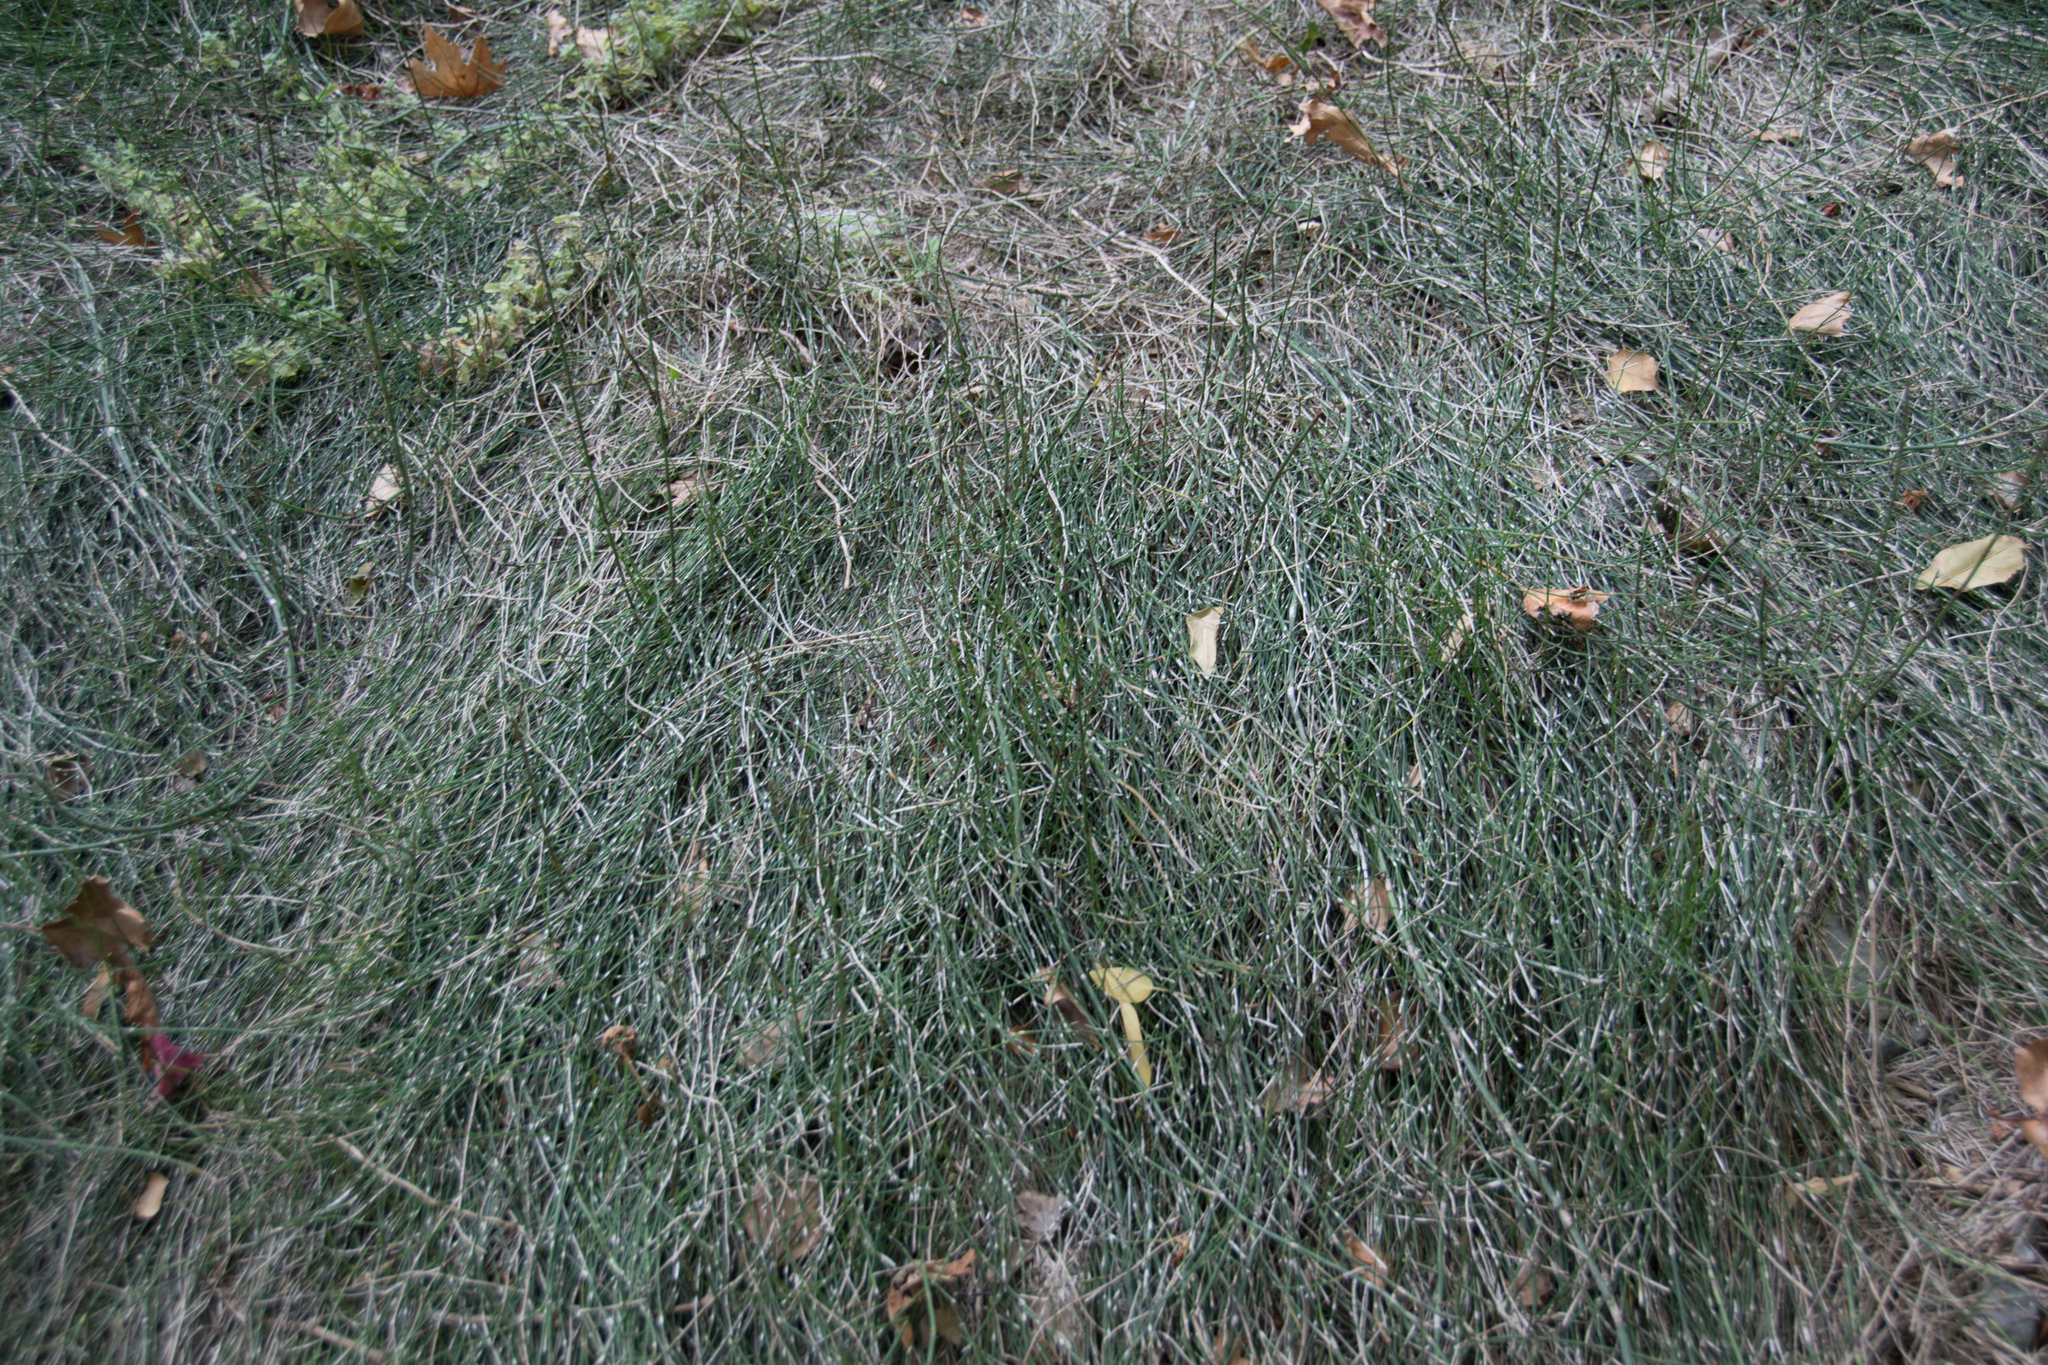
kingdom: Plantae
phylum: Tracheophyta
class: Polypodiopsida
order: Equisetales
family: Equisetaceae
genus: Equisetum
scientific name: Equisetum ramosissimum
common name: Branched horsetail
